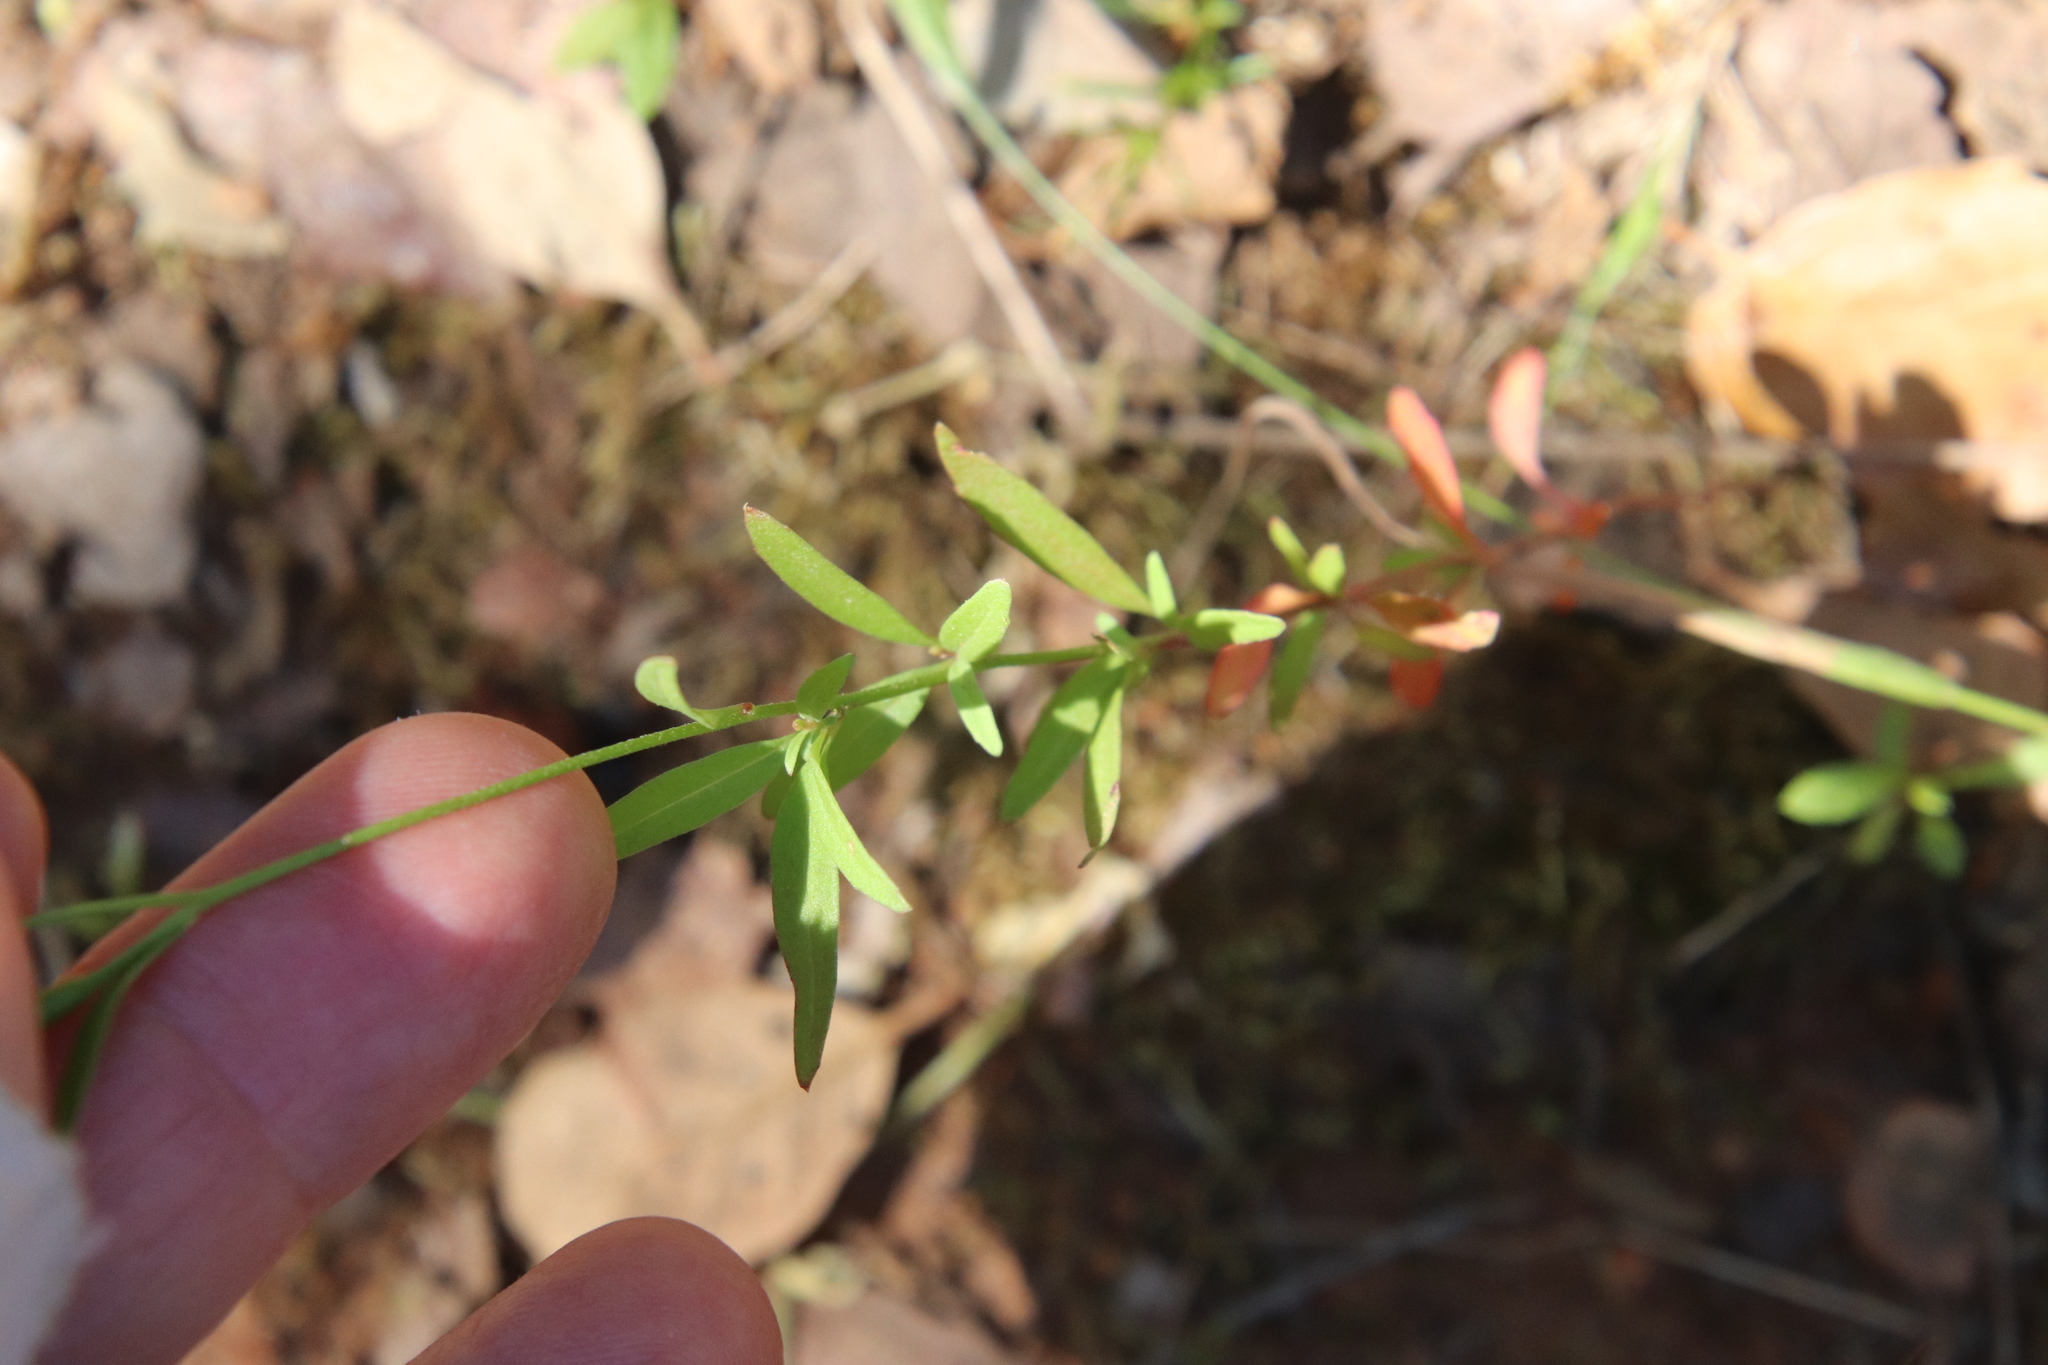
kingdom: Plantae
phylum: Tracheophyta
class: Magnoliopsida
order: Myrtales
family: Onagraceae
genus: Clarkia
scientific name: Clarkia epilobioides
